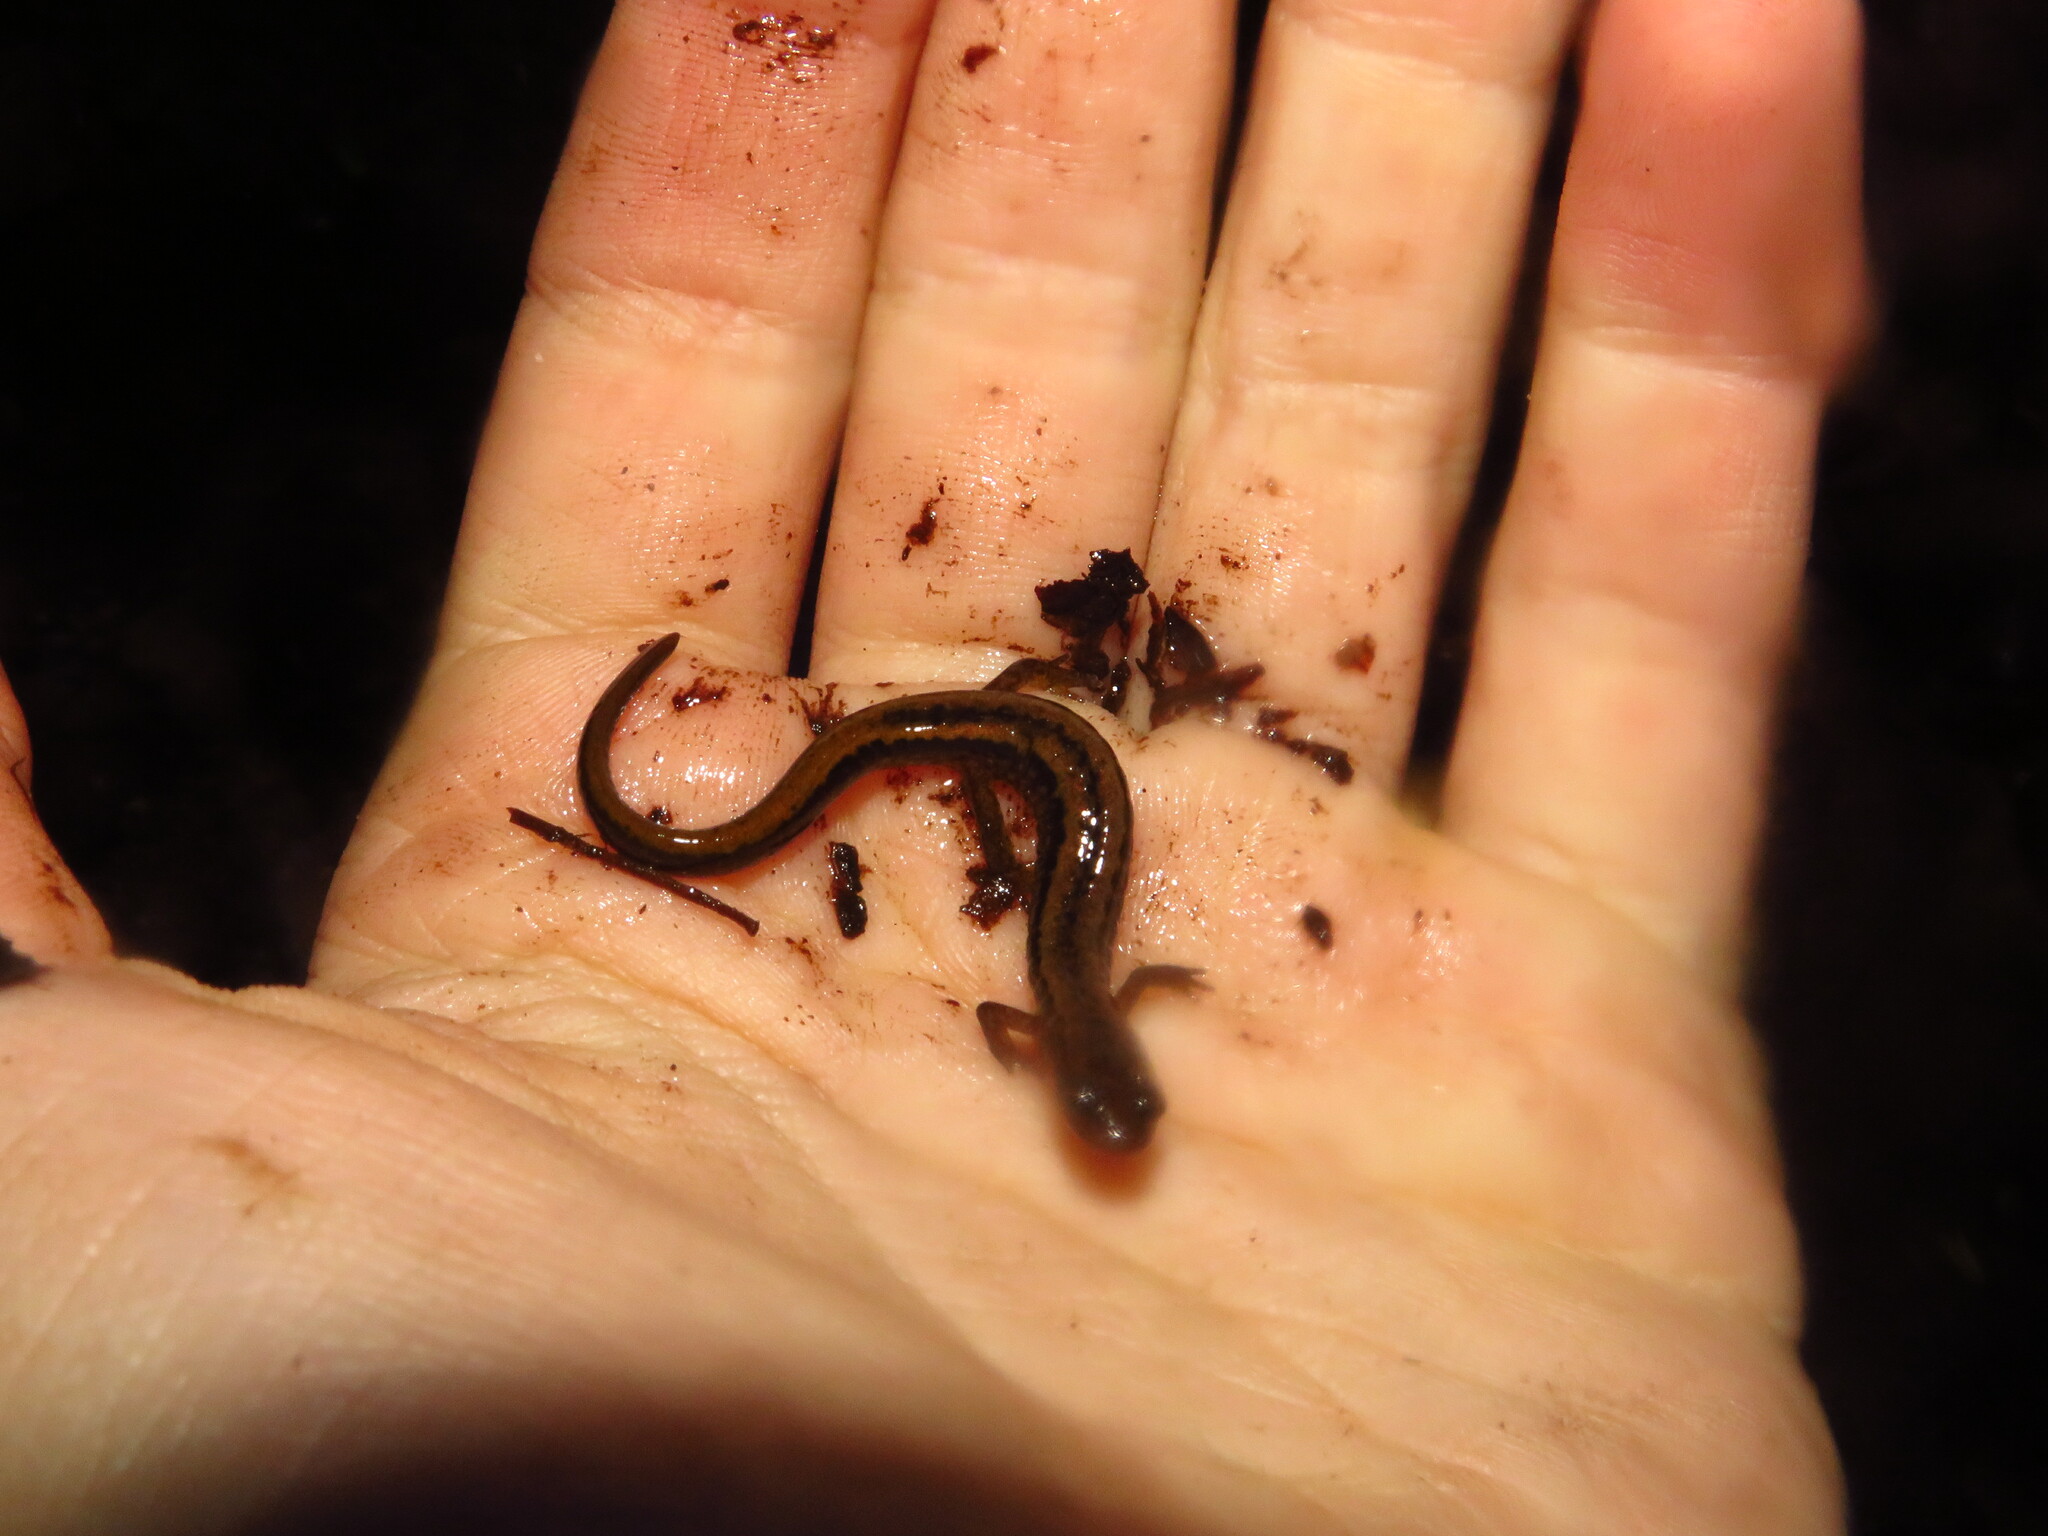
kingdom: Animalia
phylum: Chordata
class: Amphibia
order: Caudata
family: Plethodontidae
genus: Eurycea
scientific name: Eurycea bislineata
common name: Northern two-lined salamander
